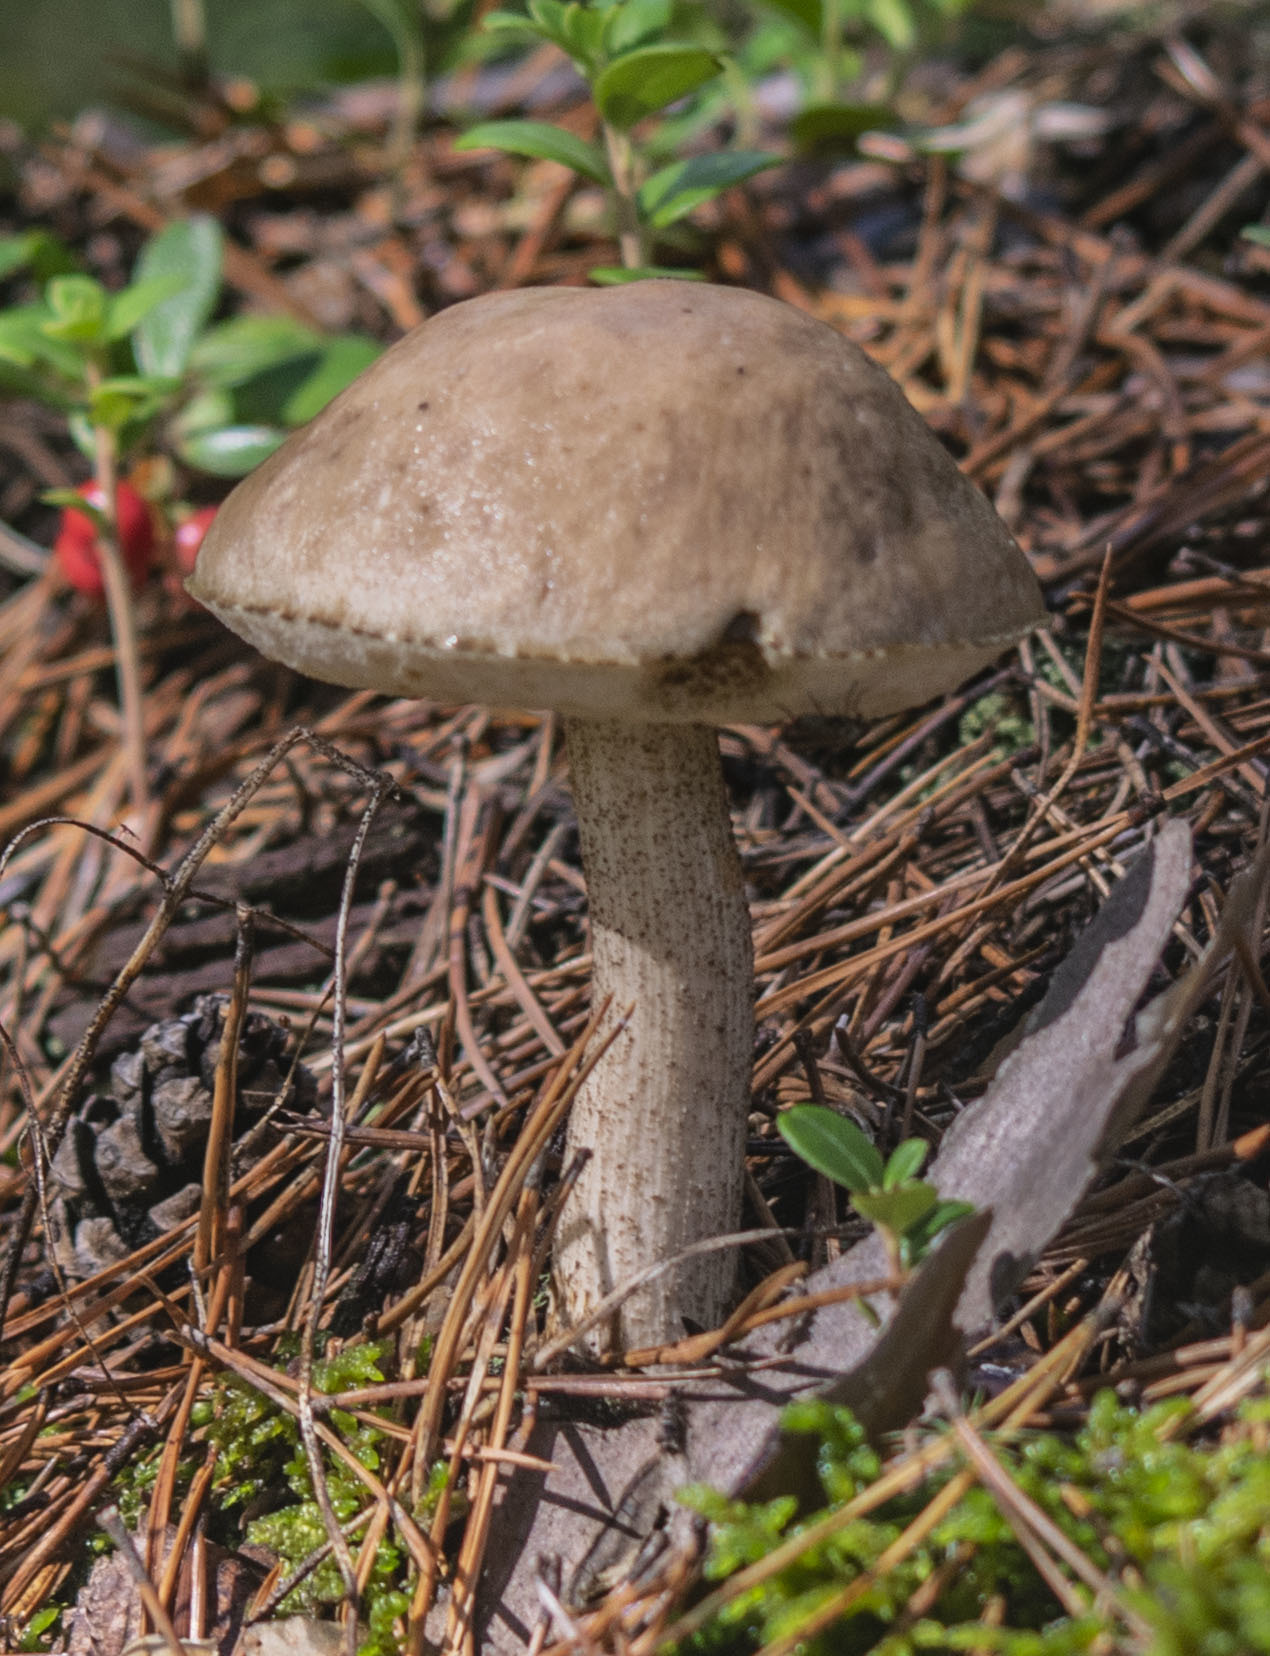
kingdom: Fungi
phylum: Basidiomycota
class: Agaricomycetes
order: Boletales
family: Boletaceae
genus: Leccinum
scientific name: Leccinum scabrum
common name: Blushing bolete
